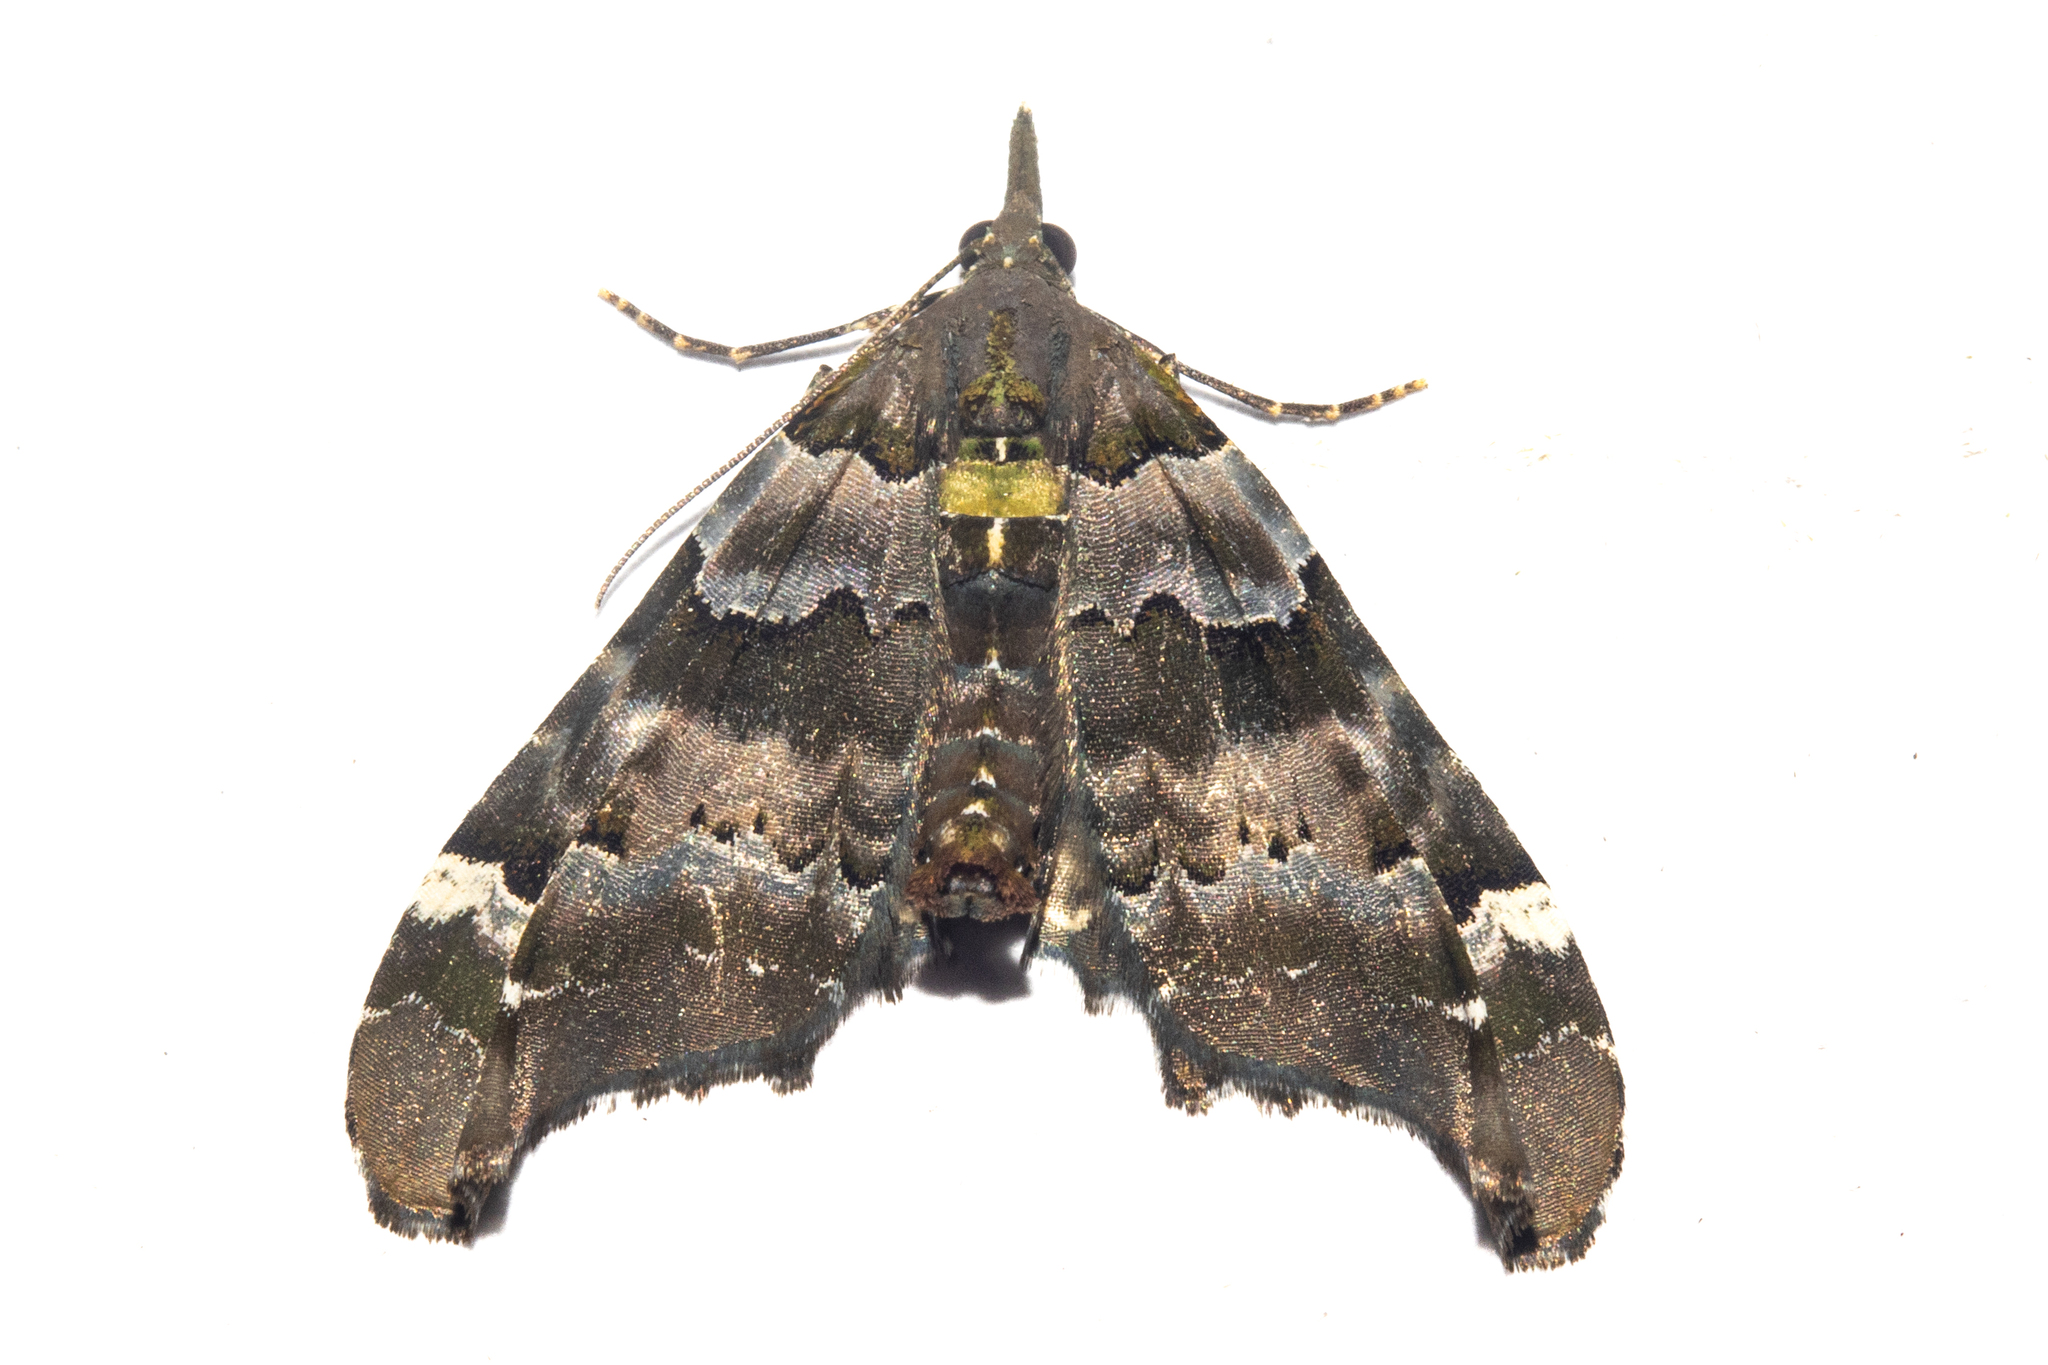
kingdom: Animalia
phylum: Arthropoda
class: Insecta
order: Lepidoptera
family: Geometridae
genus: Elvia
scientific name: Elvia glaucata
